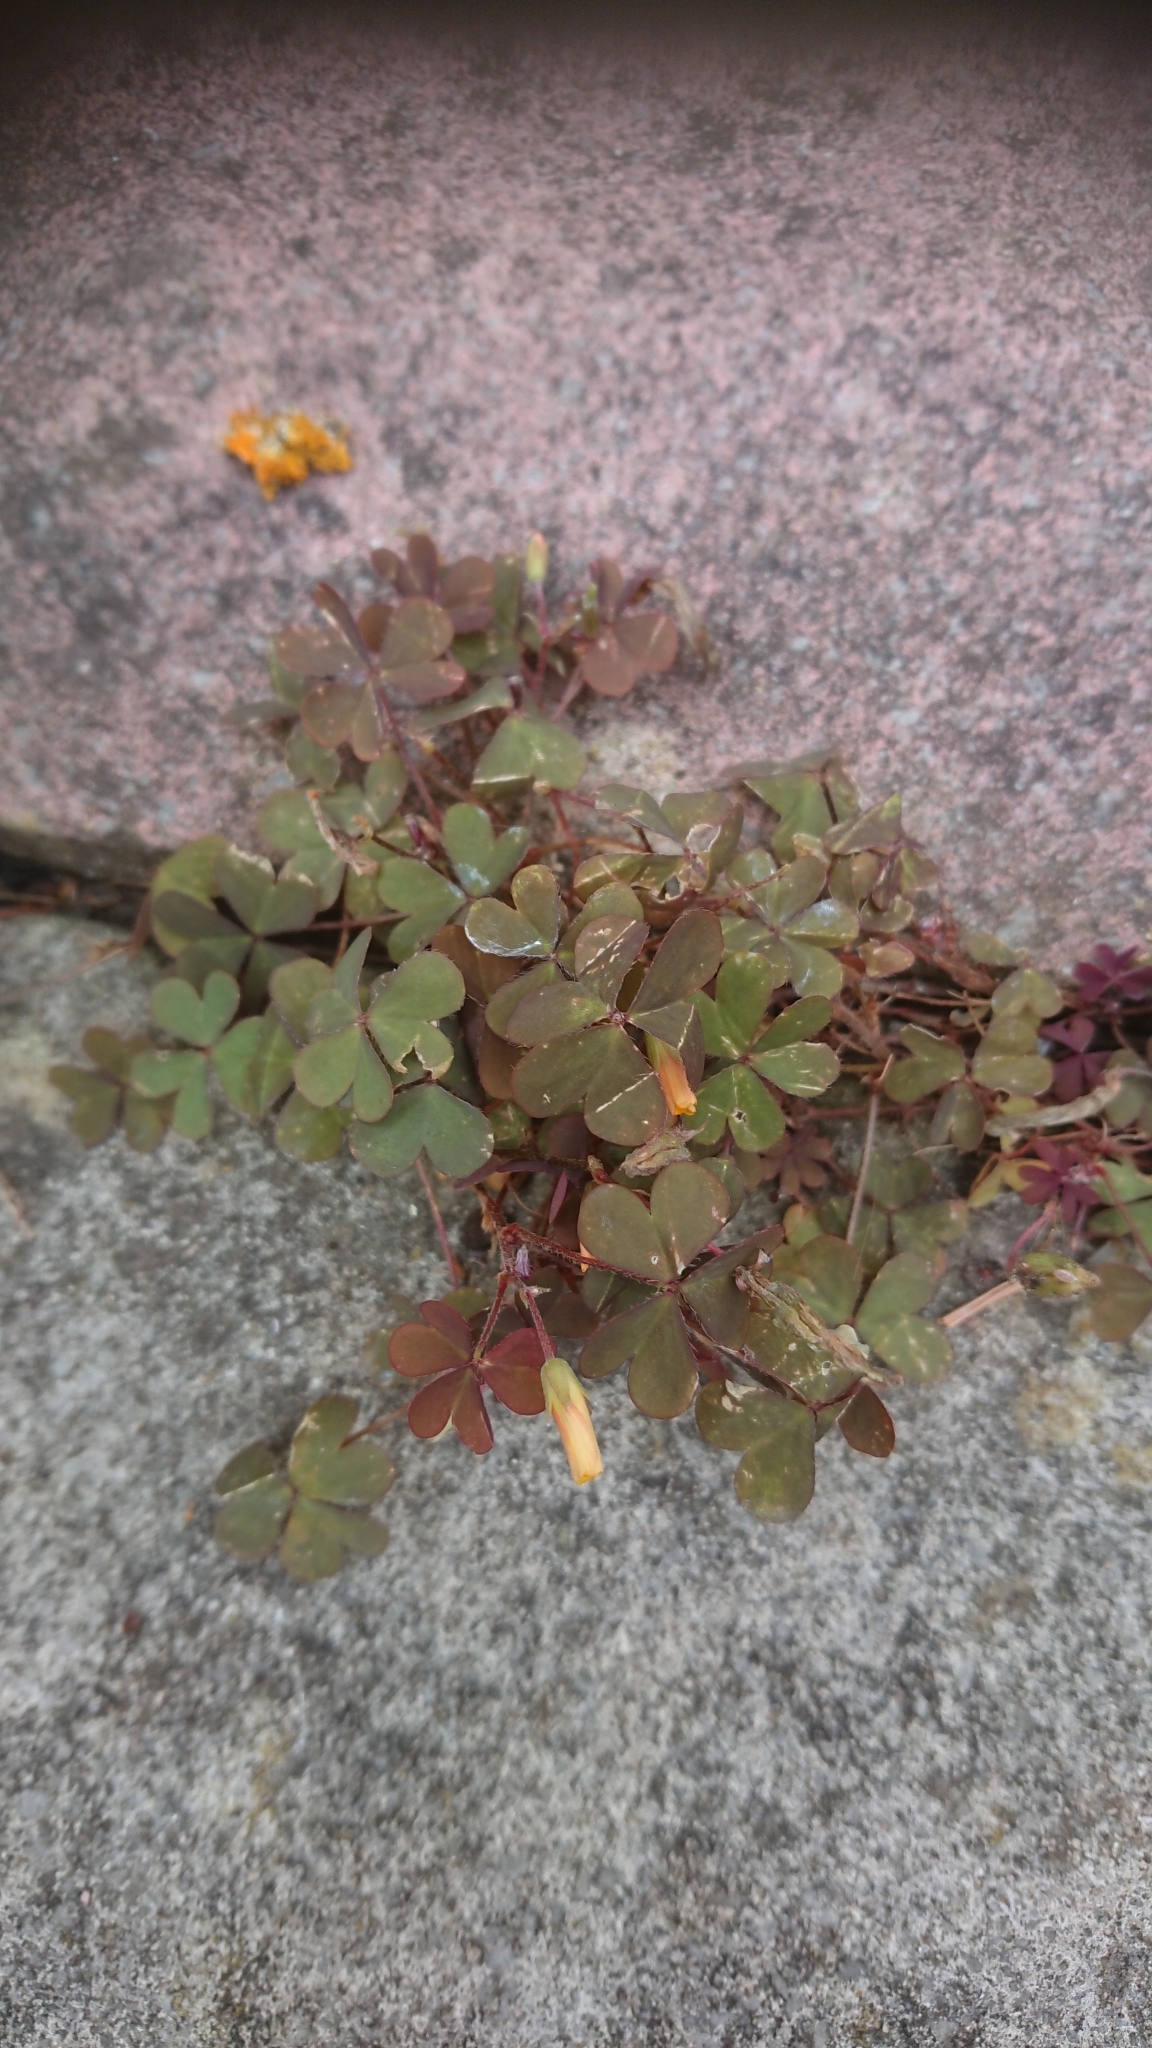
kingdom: Plantae
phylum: Tracheophyta
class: Magnoliopsida
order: Oxalidales
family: Oxalidaceae
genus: Oxalis
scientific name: Oxalis corniculata
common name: Procumbent yellow-sorrel
